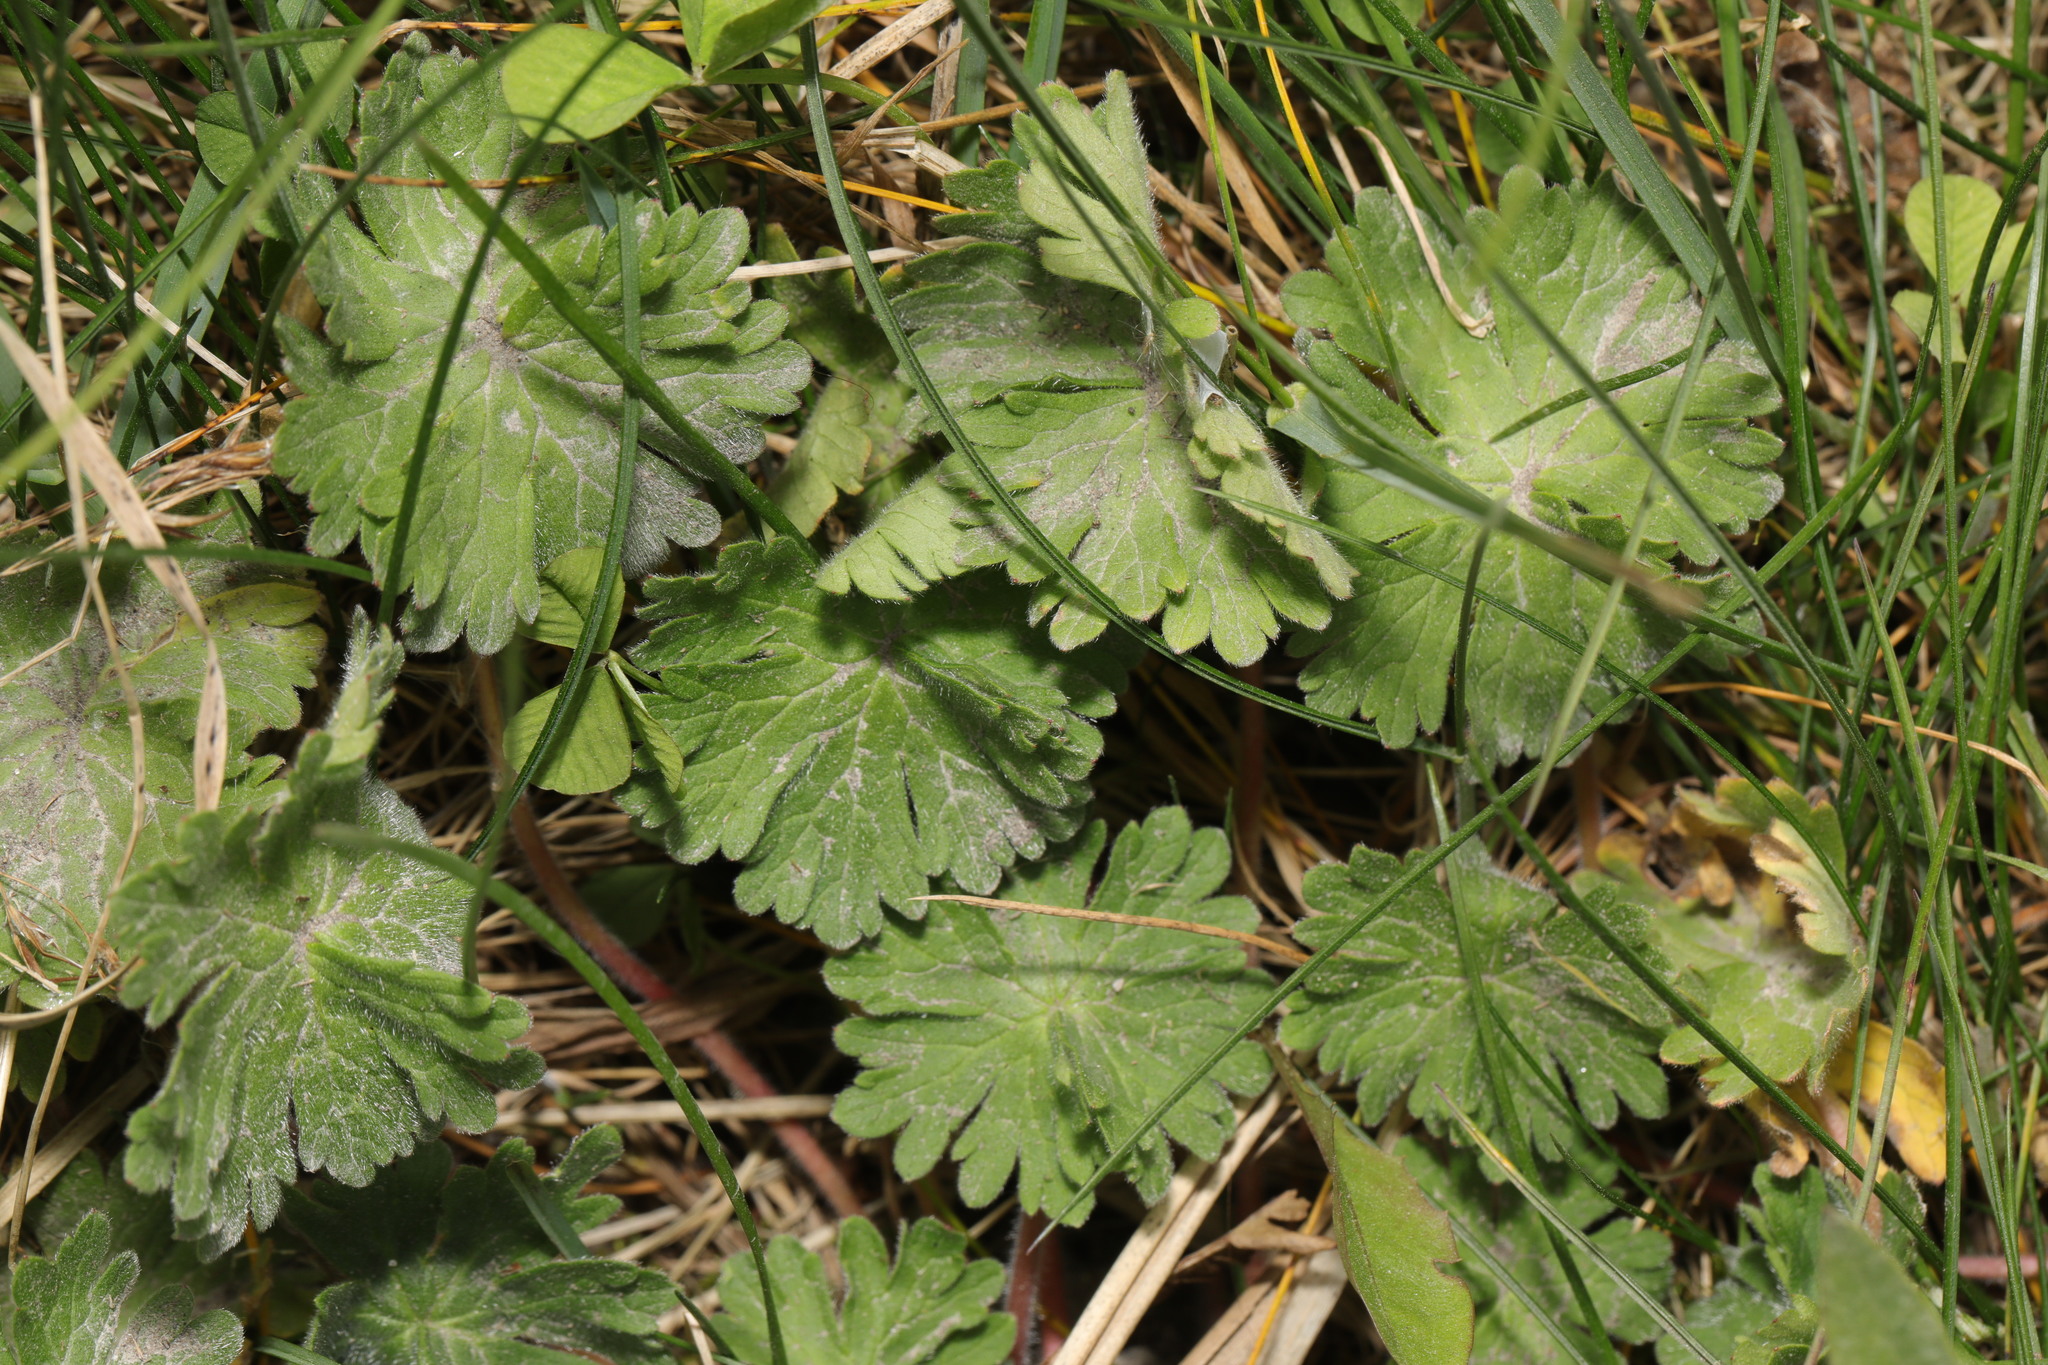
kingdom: Plantae
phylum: Tracheophyta
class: Magnoliopsida
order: Geraniales
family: Geraniaceae
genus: Geranium
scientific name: Geranium molle
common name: Dove's-foot crane's-bill
